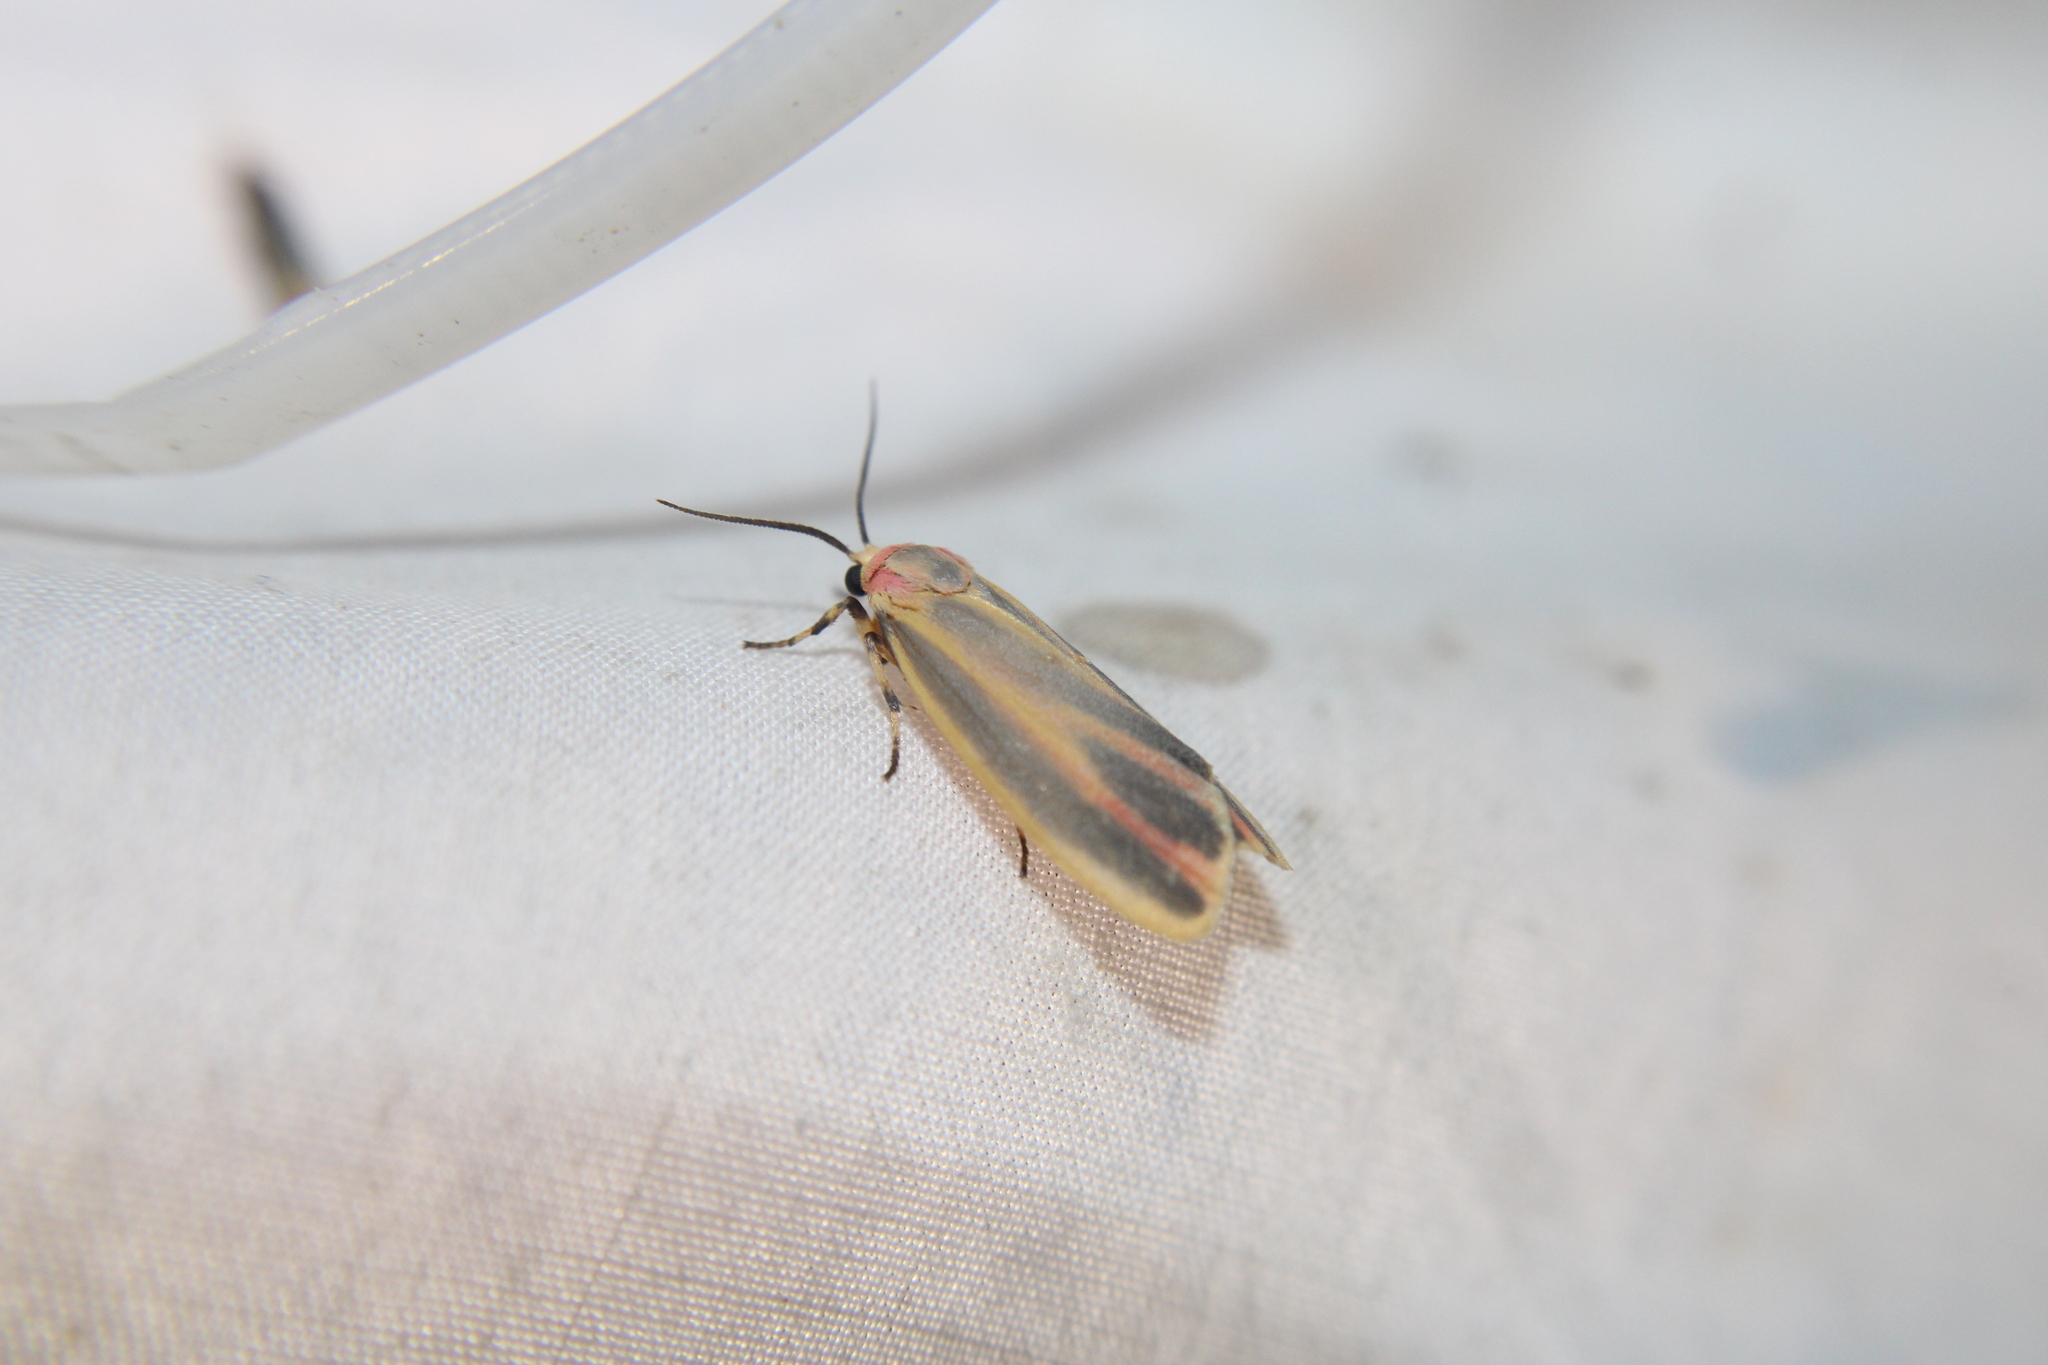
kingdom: Animalia
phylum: Arthropoda
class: Insecta
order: Lepidoptera
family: Erebidae
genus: Hypoprepia
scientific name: Hypoprepia fucosa
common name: Painted lichen moth
